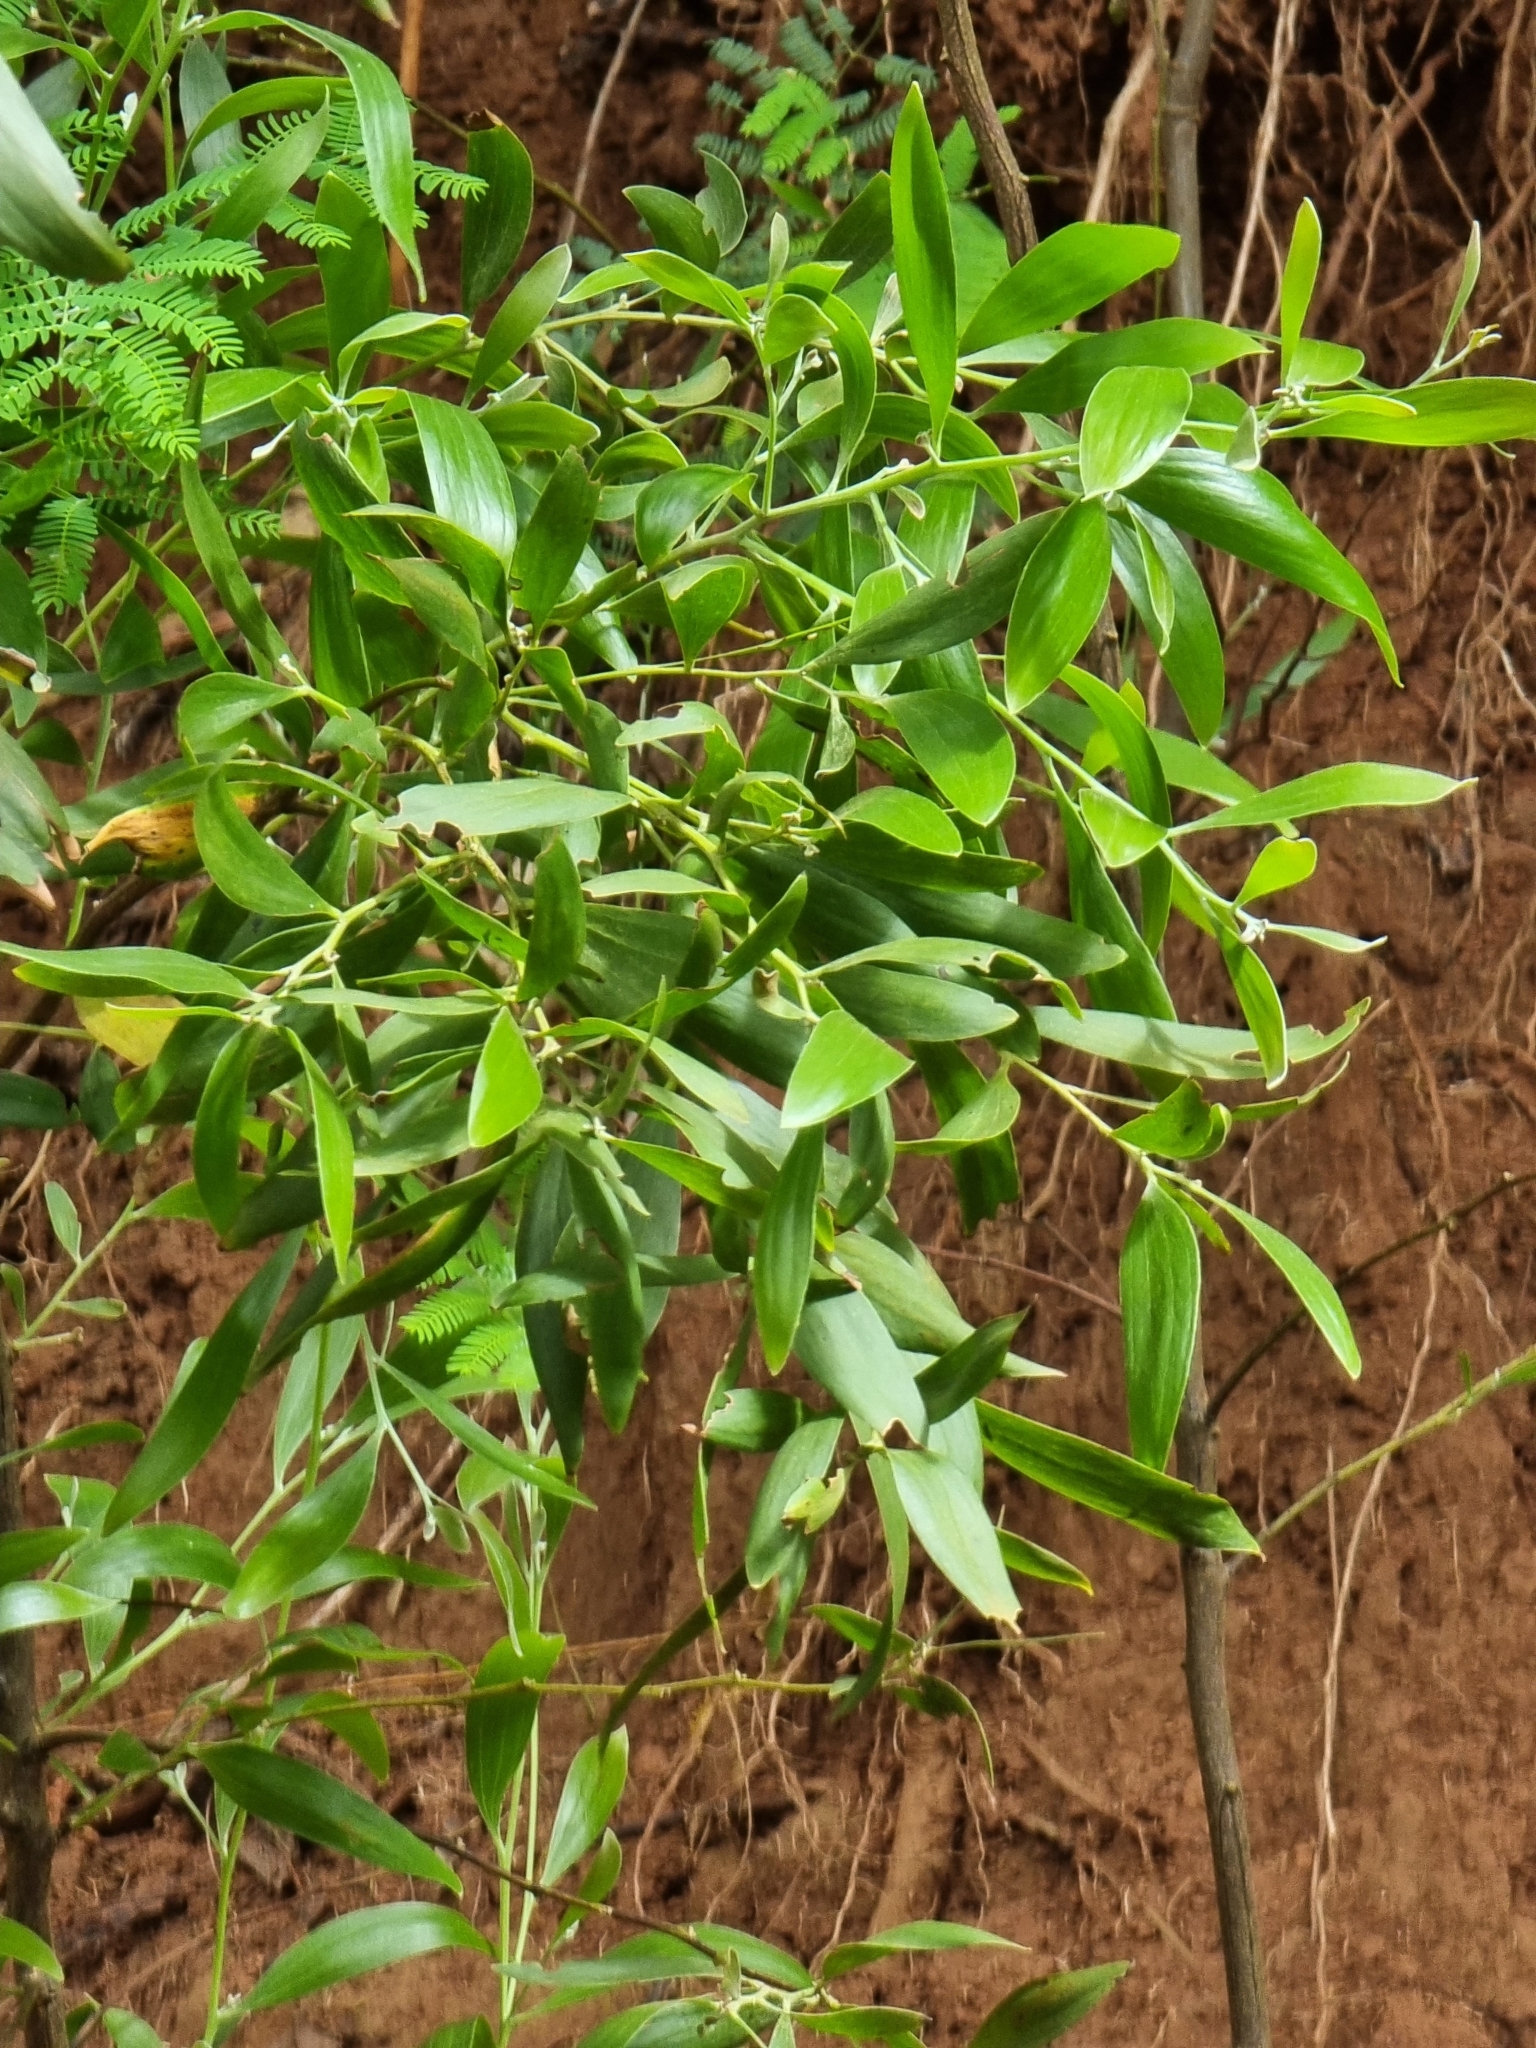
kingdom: Plantae
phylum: Tracheophyta
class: Magnoliopsida
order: Fabales
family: Fabaceae
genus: Acacia
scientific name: Acacia melanoxylon
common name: Blackwood
